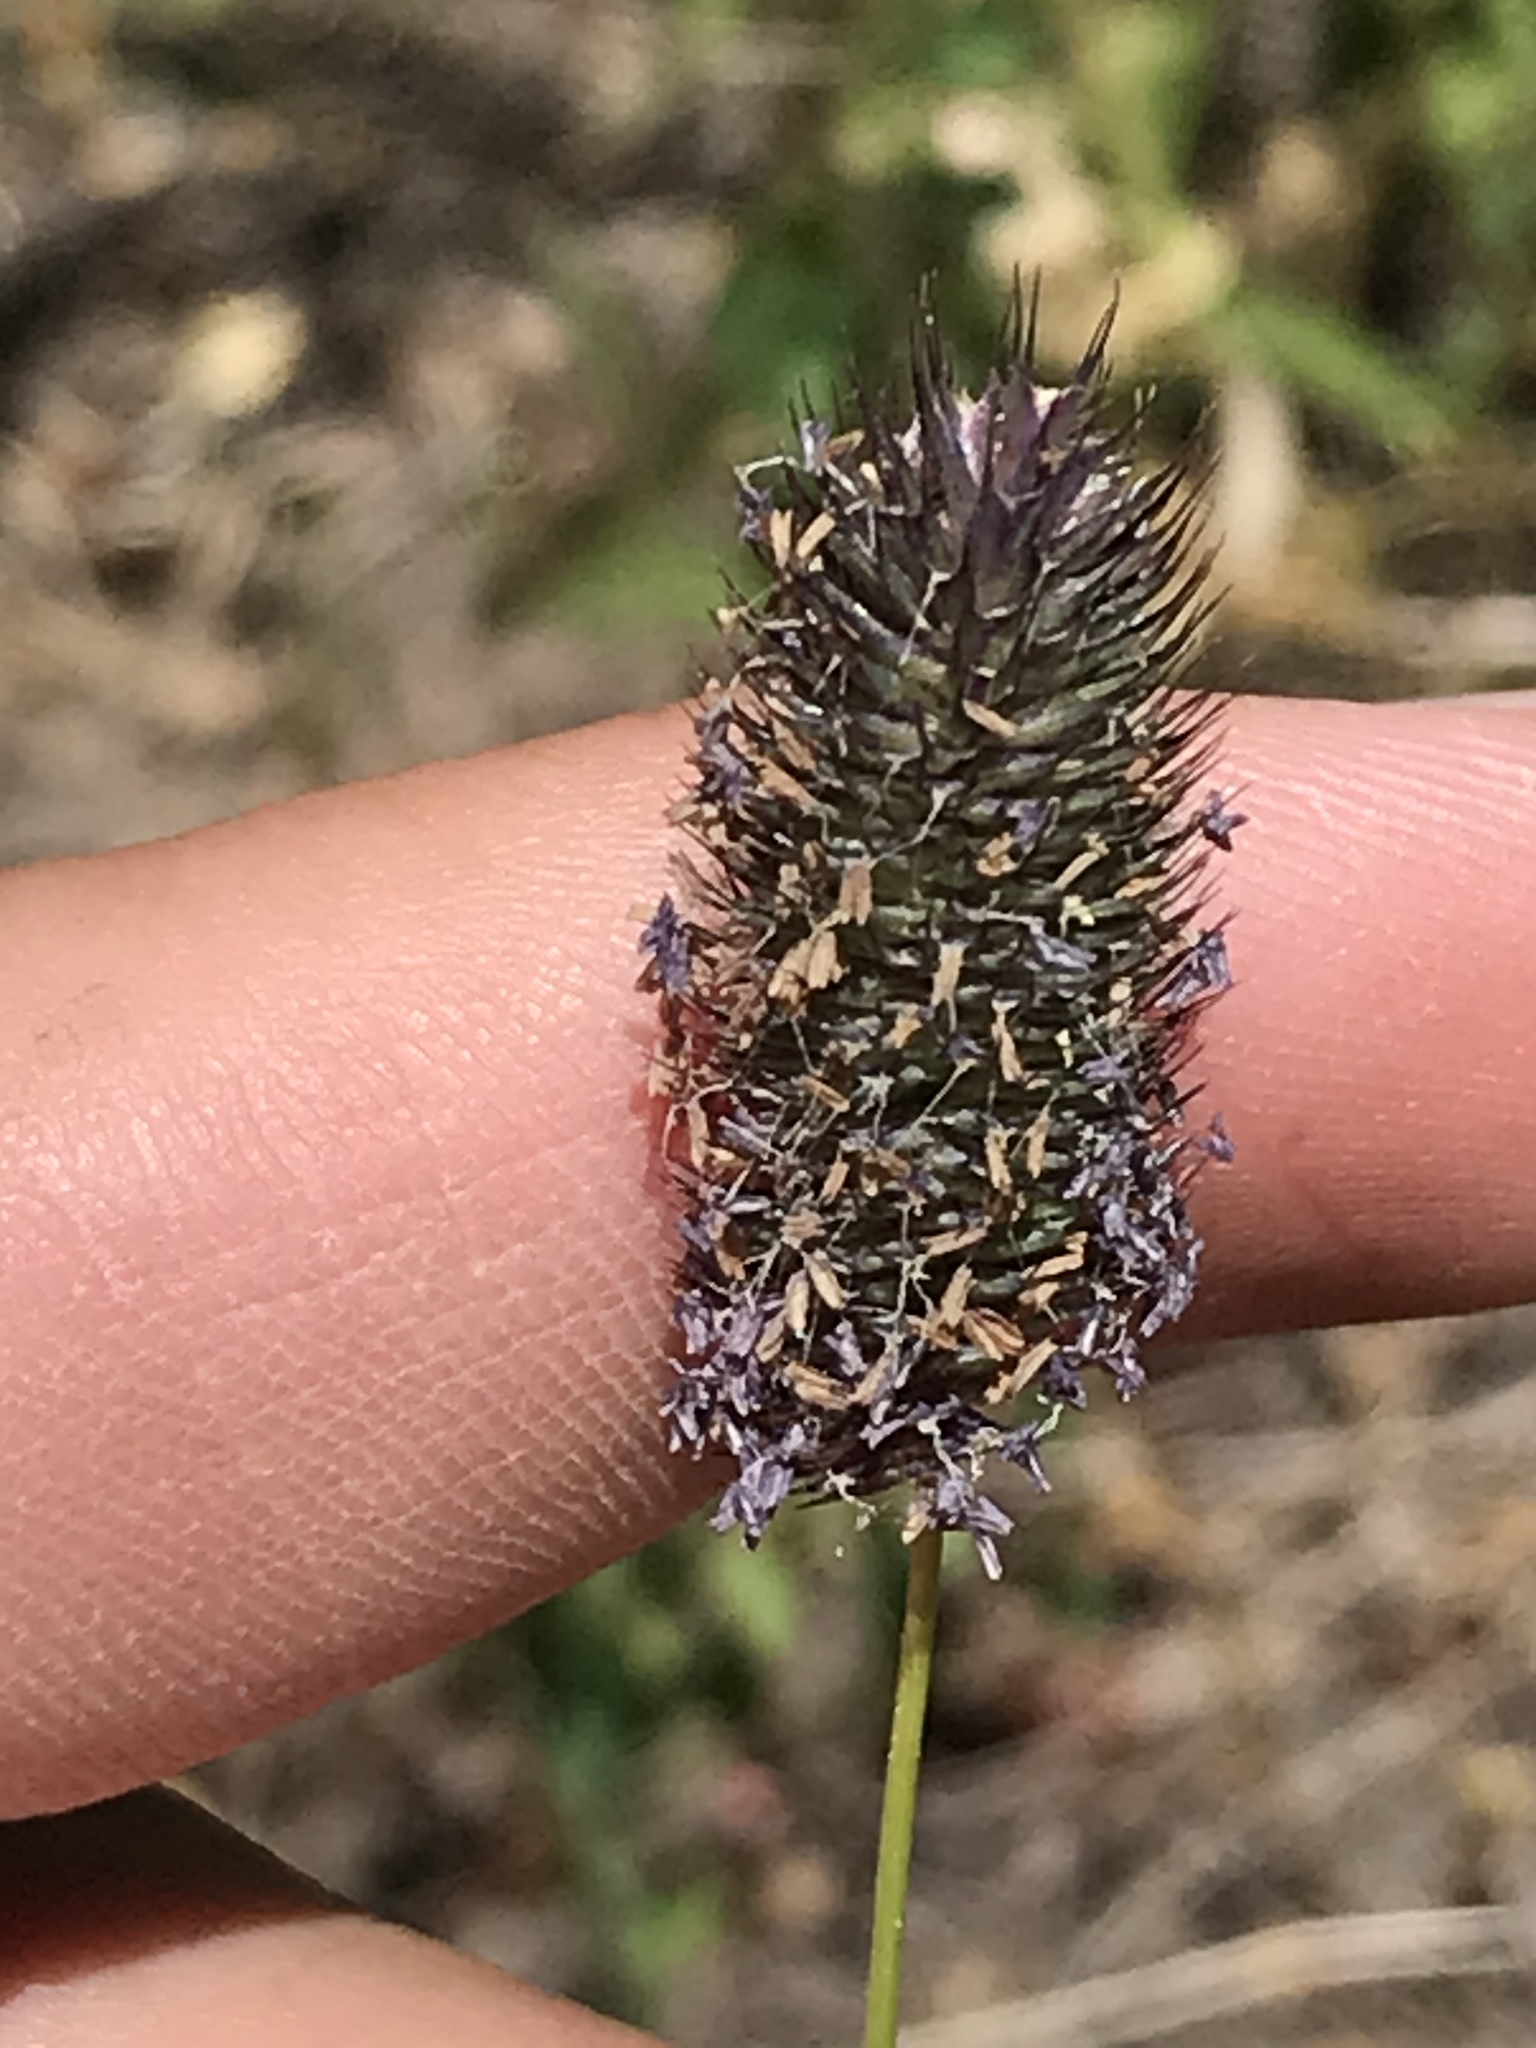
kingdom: Plantae
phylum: Tracheophyta
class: Liliopsida
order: Poales
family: Poaceae
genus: Phleum
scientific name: Phleum alpinum
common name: Alpine cat's-tail
